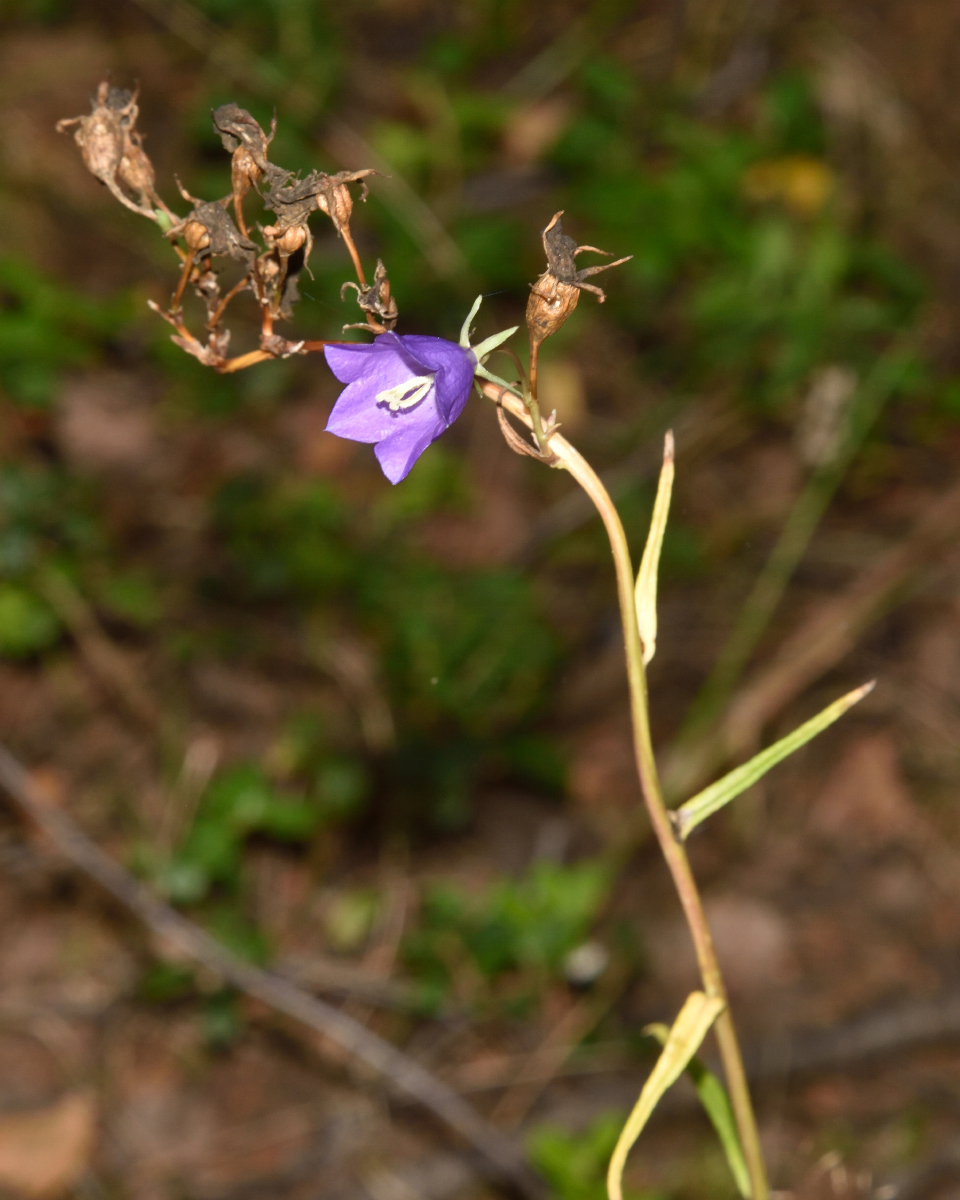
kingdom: Plantae
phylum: Tracheophyta
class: Magnoliopsida
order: Asterales
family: Campanulaceae
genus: Campanula
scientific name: Campanula persicifolia
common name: Peach-leaved bellflower
